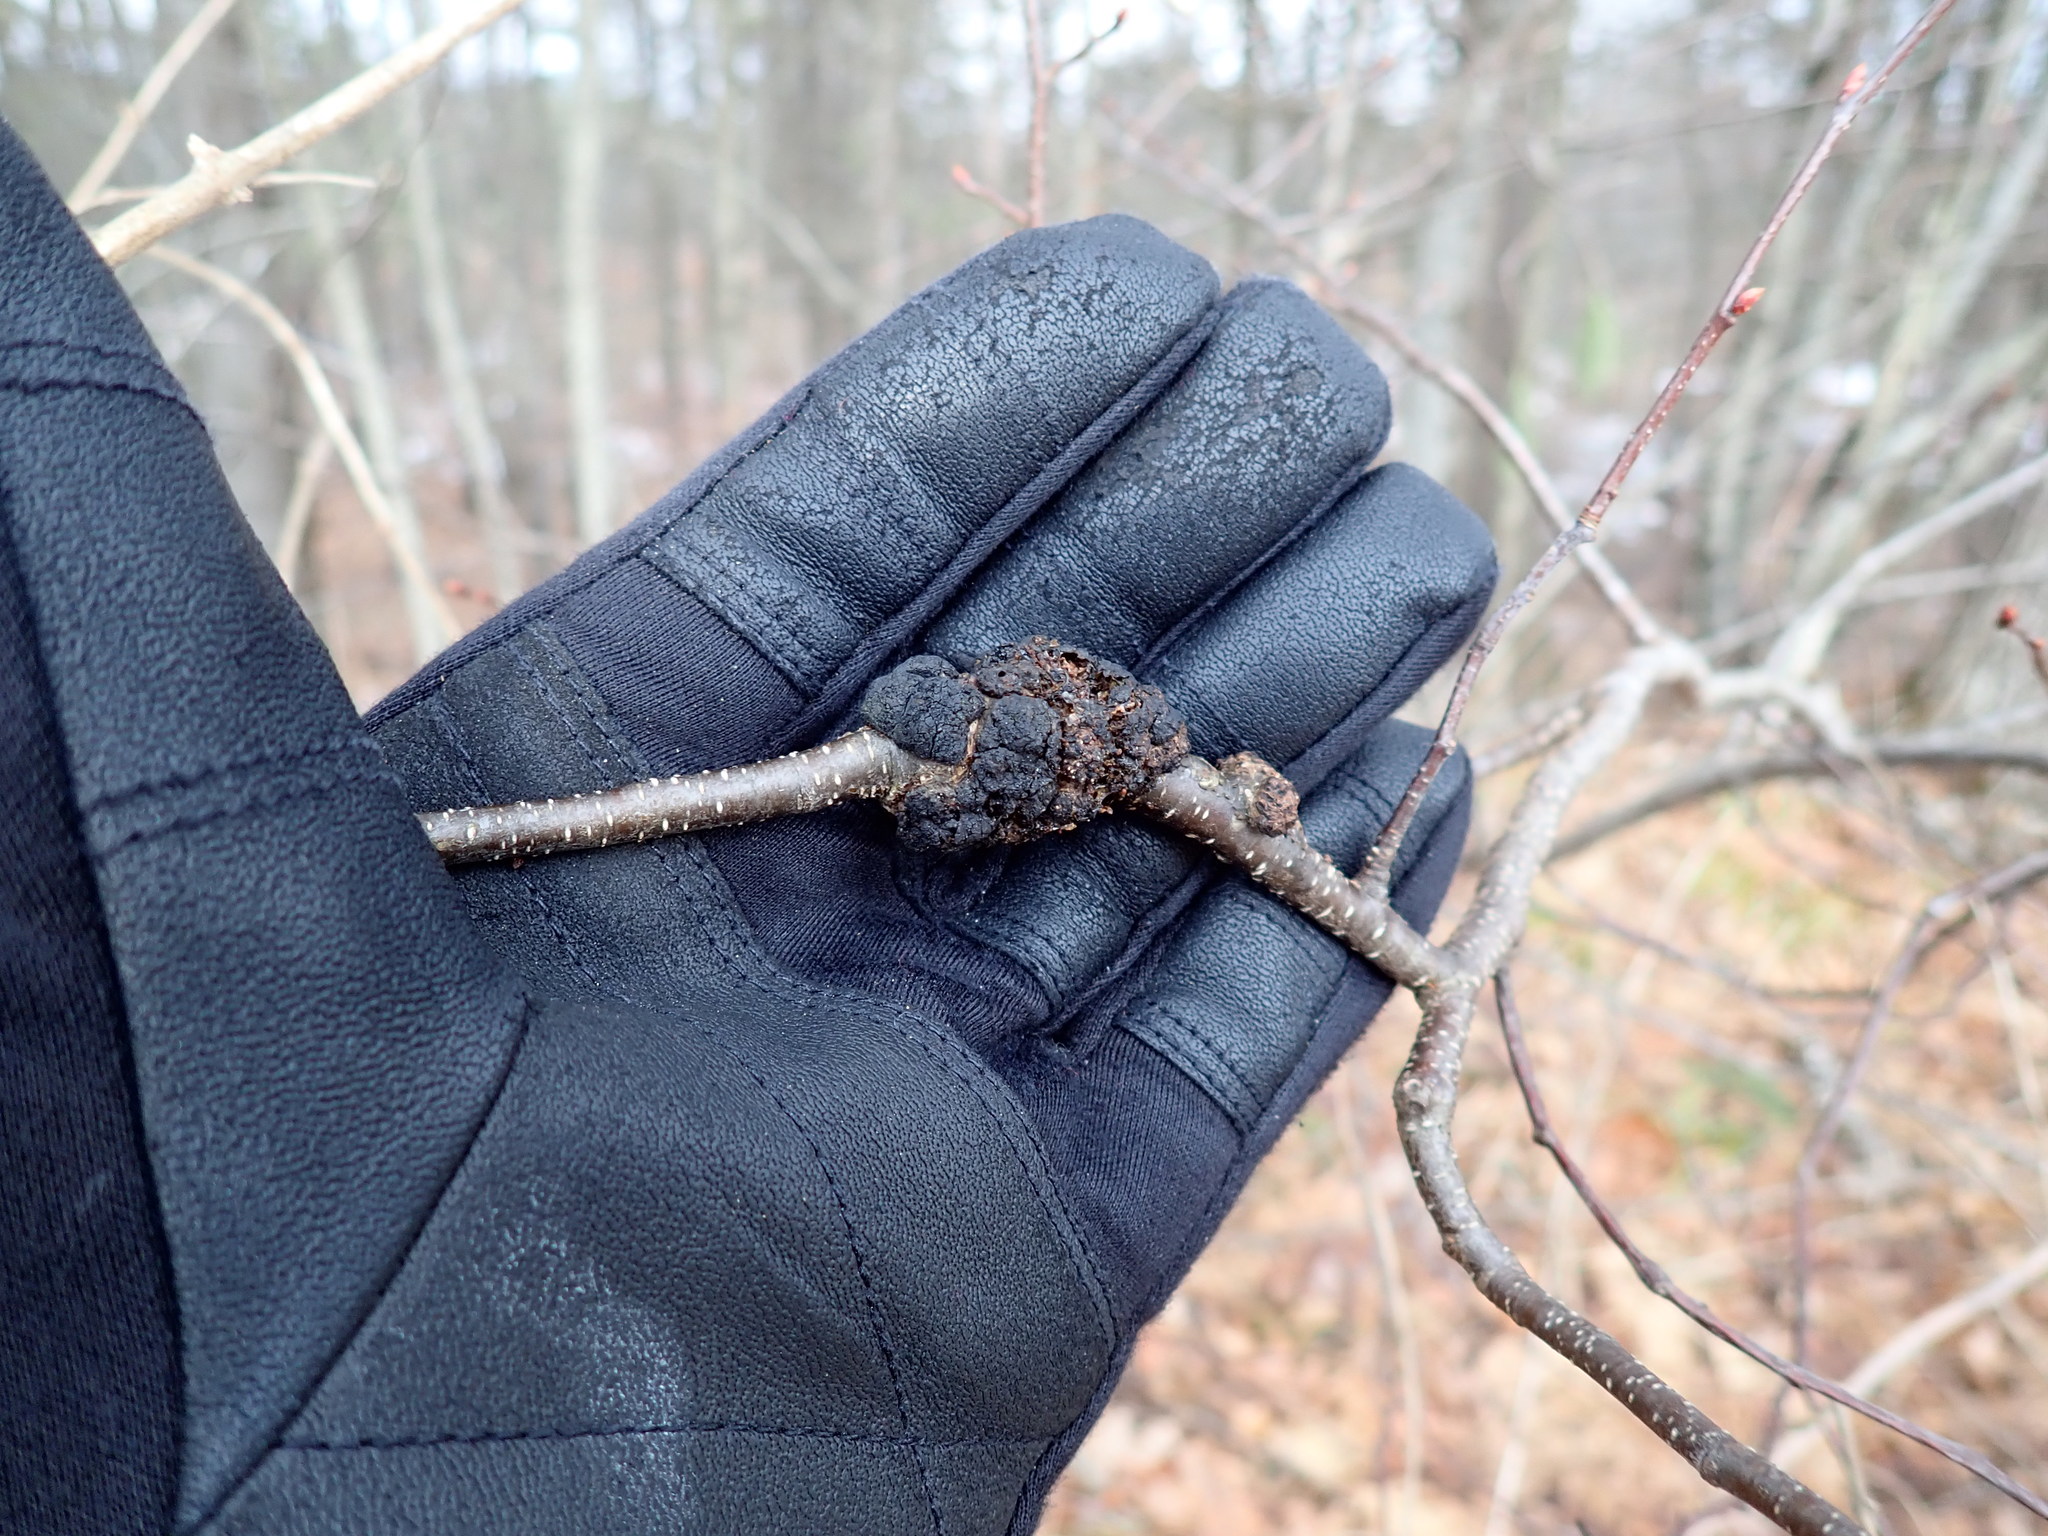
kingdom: Fungi
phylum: Ascomycota
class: Dothideomycetes
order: Venturiales
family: Venturiaceae
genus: Apiosporina
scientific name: Apiosporina morbosa
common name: Black knot
